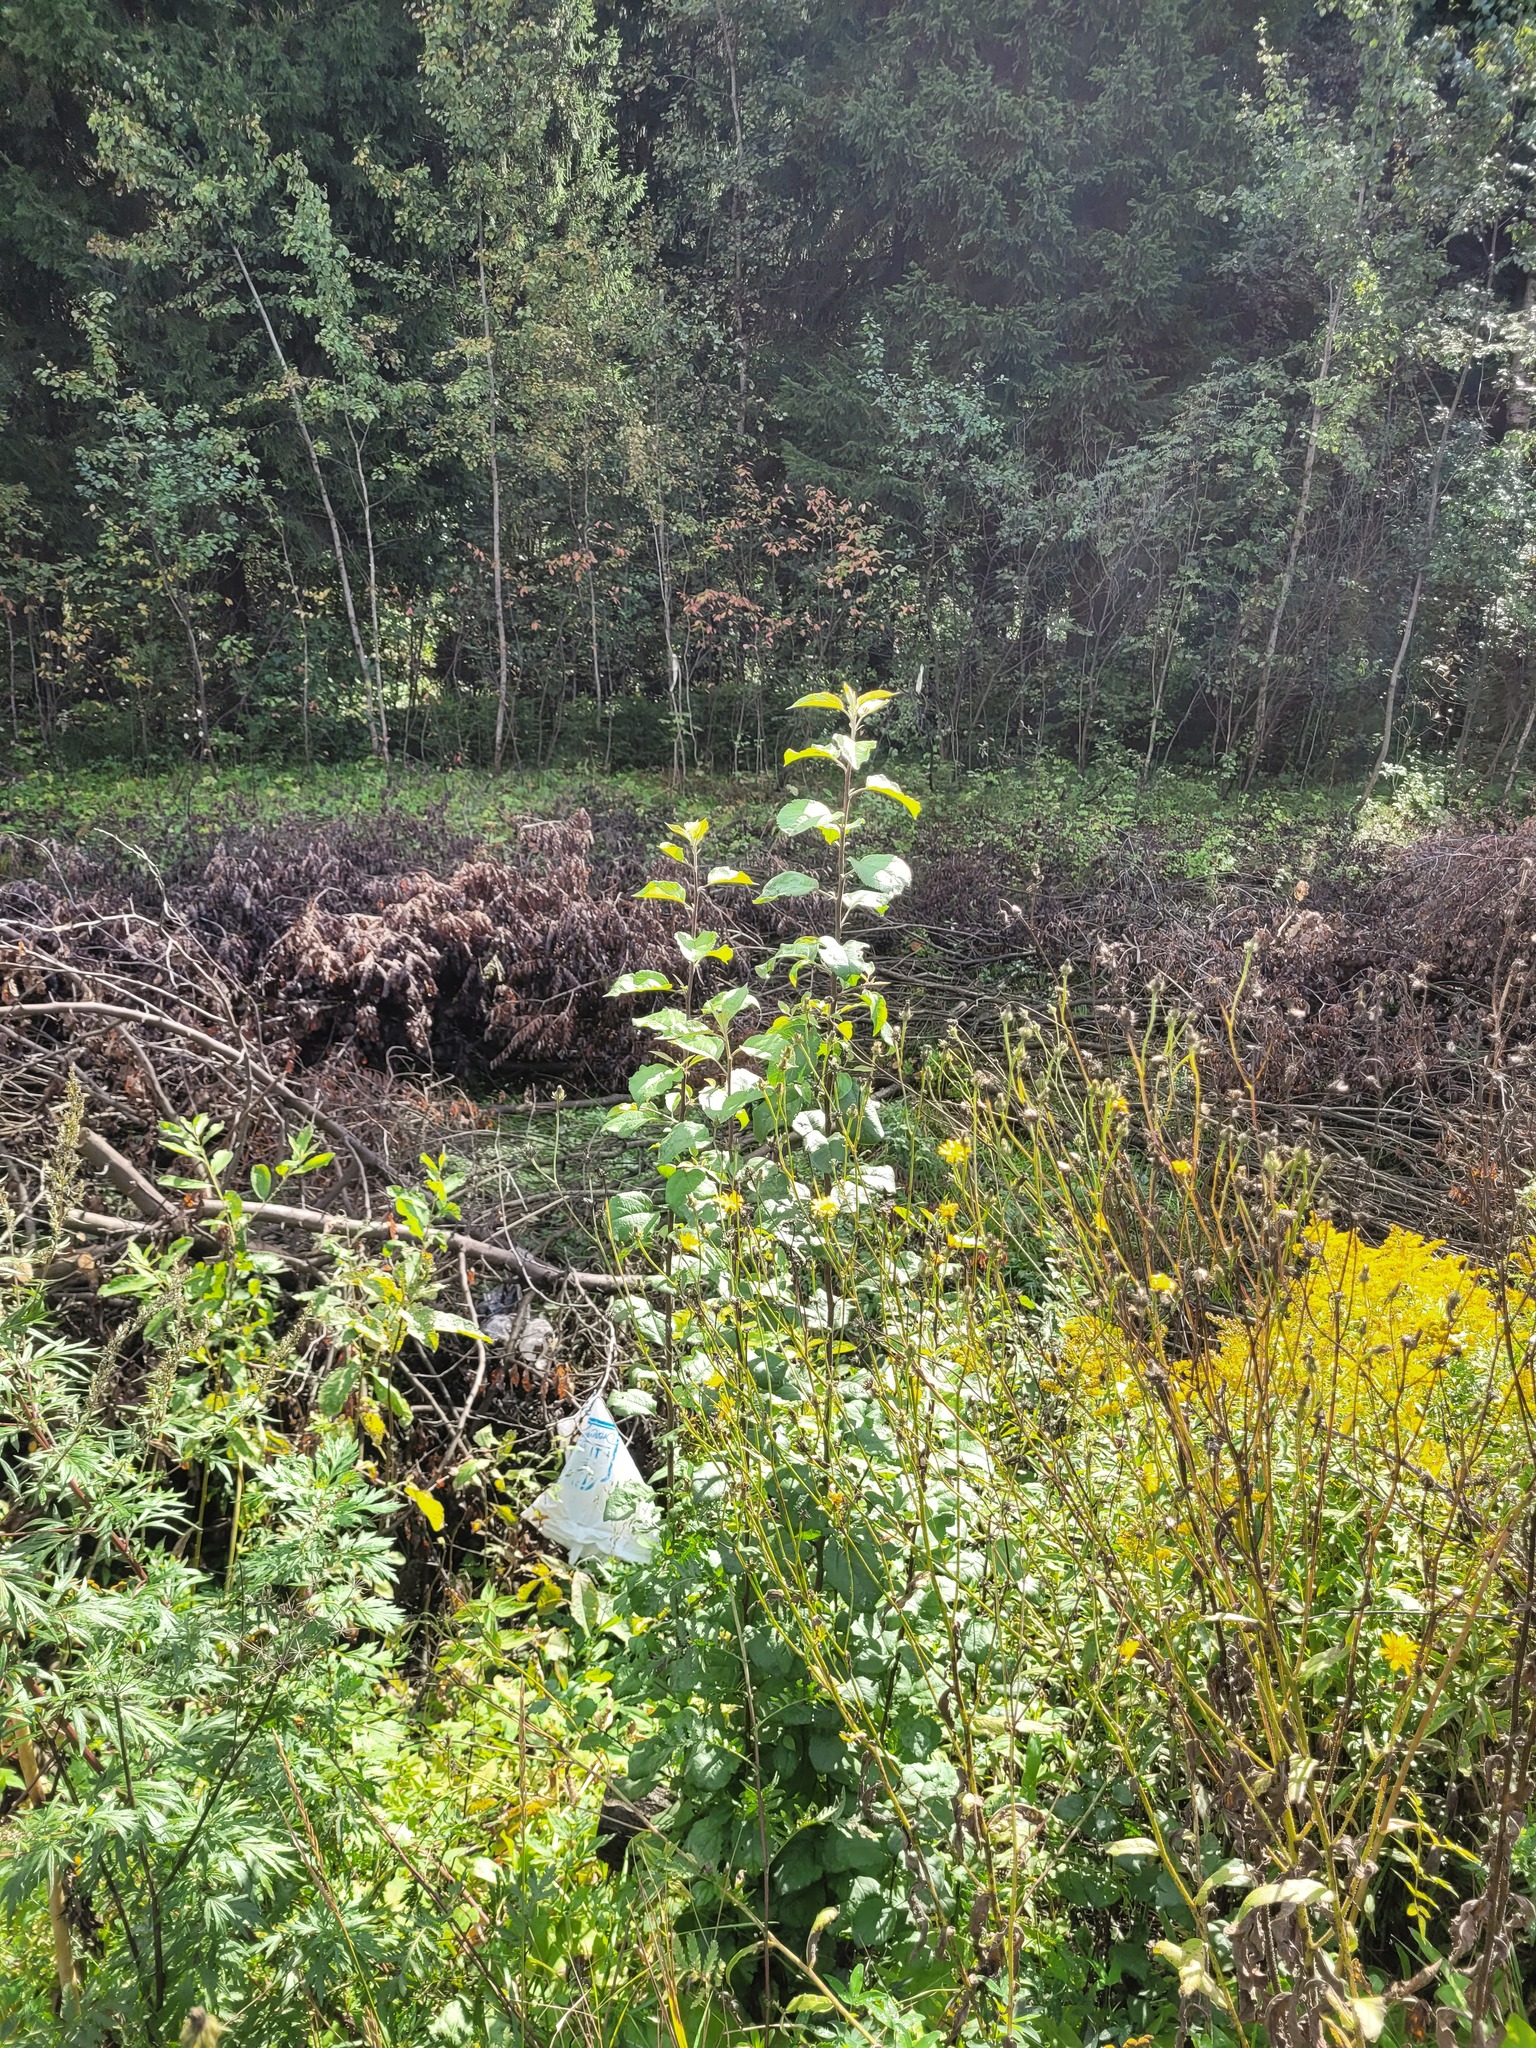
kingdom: Plantae
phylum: Tracheophyta
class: Magnoliopsida
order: Rosales
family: Rosaceae
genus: Malus
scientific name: Malus domestica
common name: Apple
